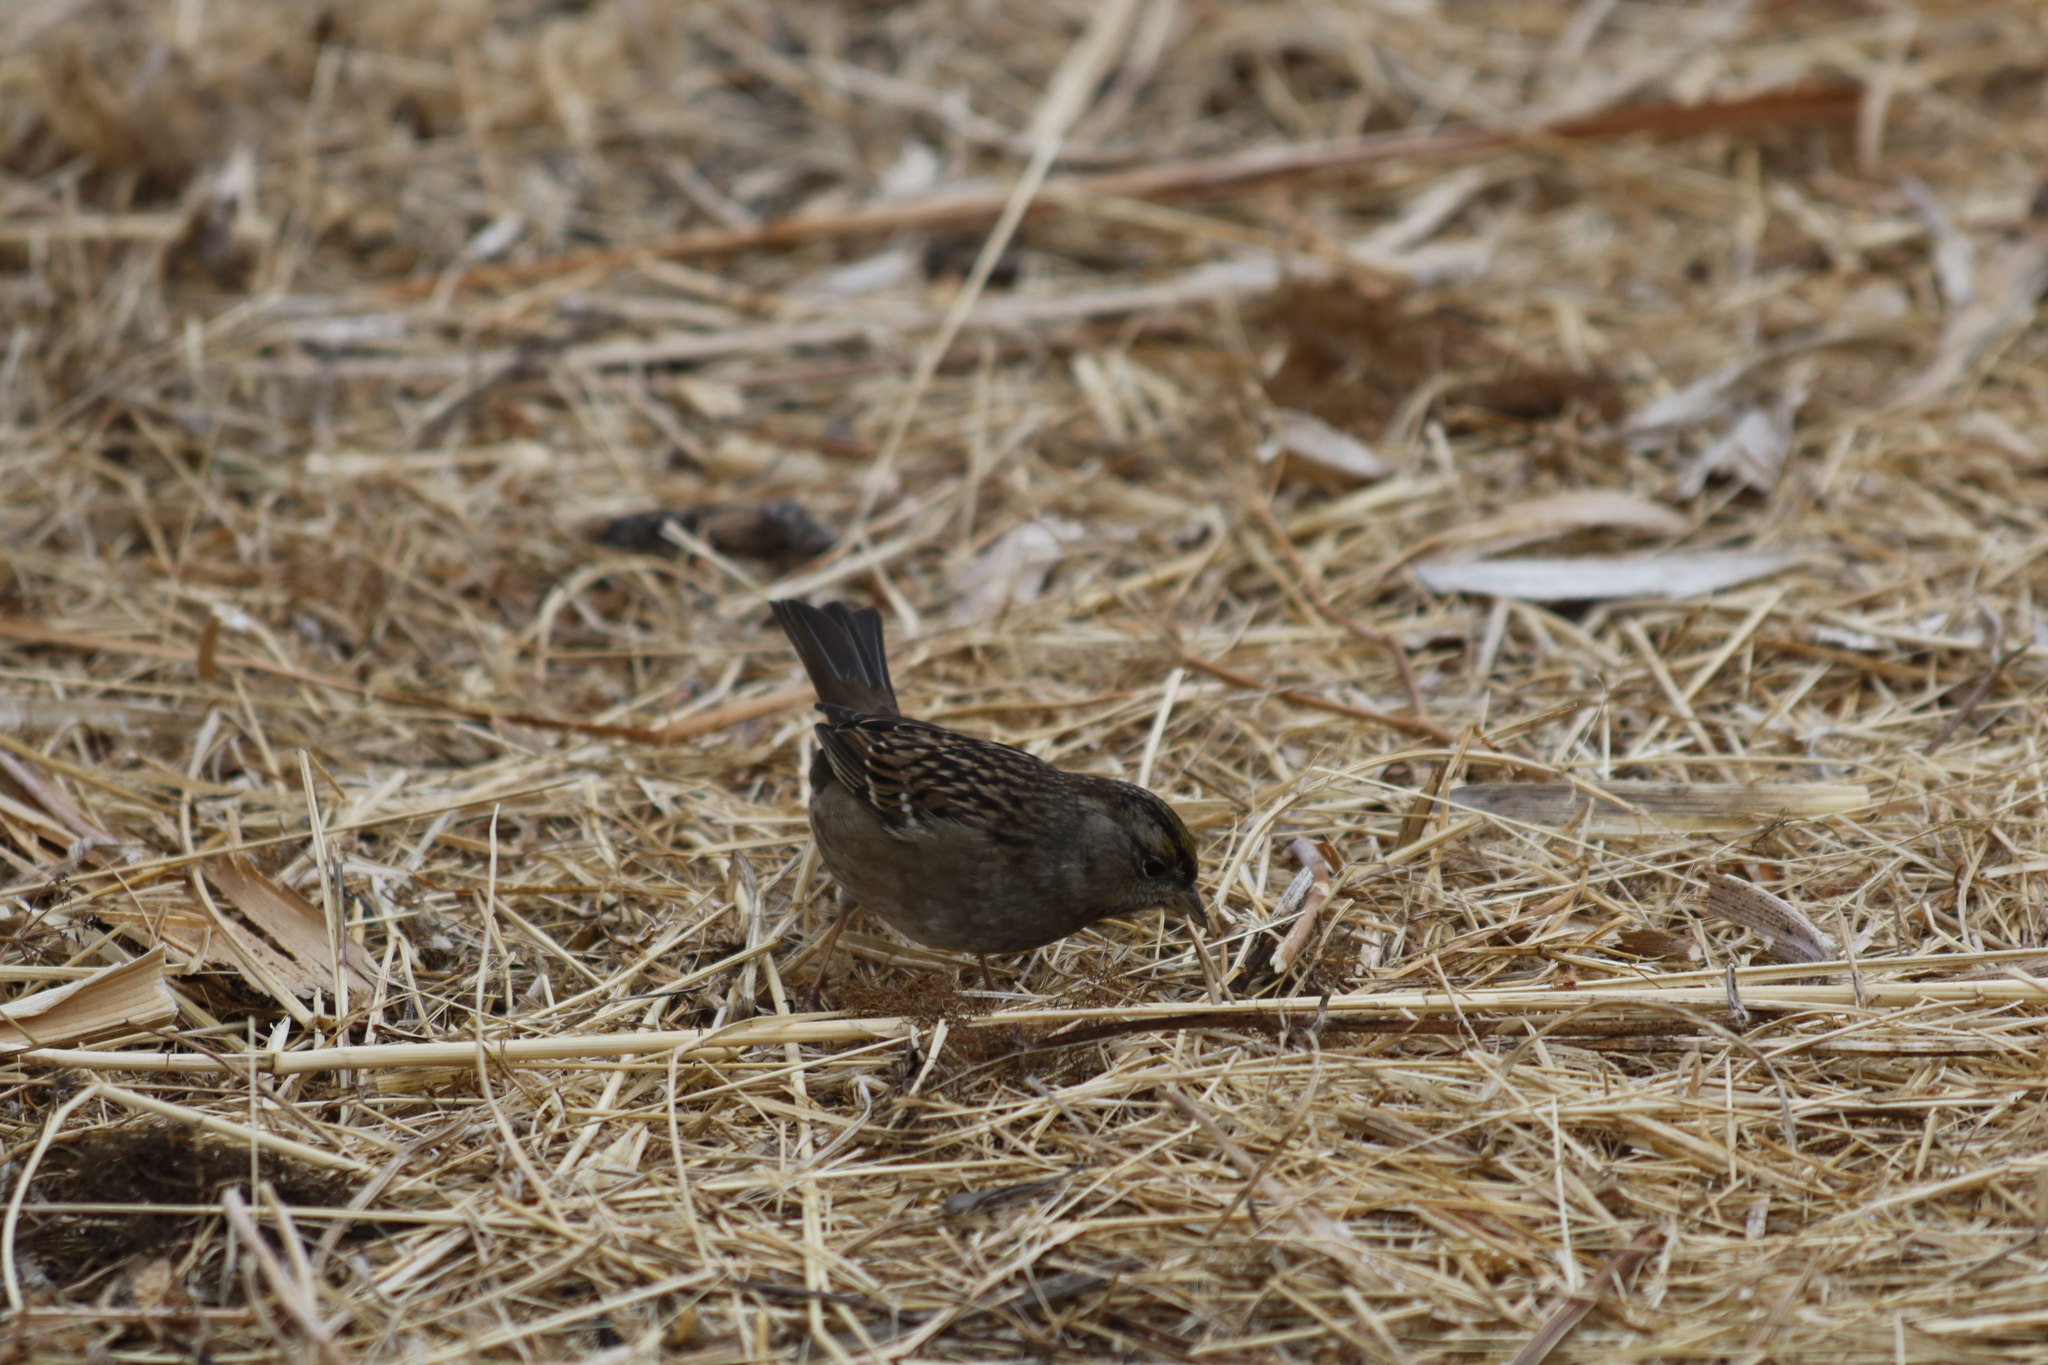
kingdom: Animalia
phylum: Chordata
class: Aves
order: Passeriformes
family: Passerellidae
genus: Zonotrichia
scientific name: Zonotrichia atricapilla
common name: Golden-crowned sparrow
